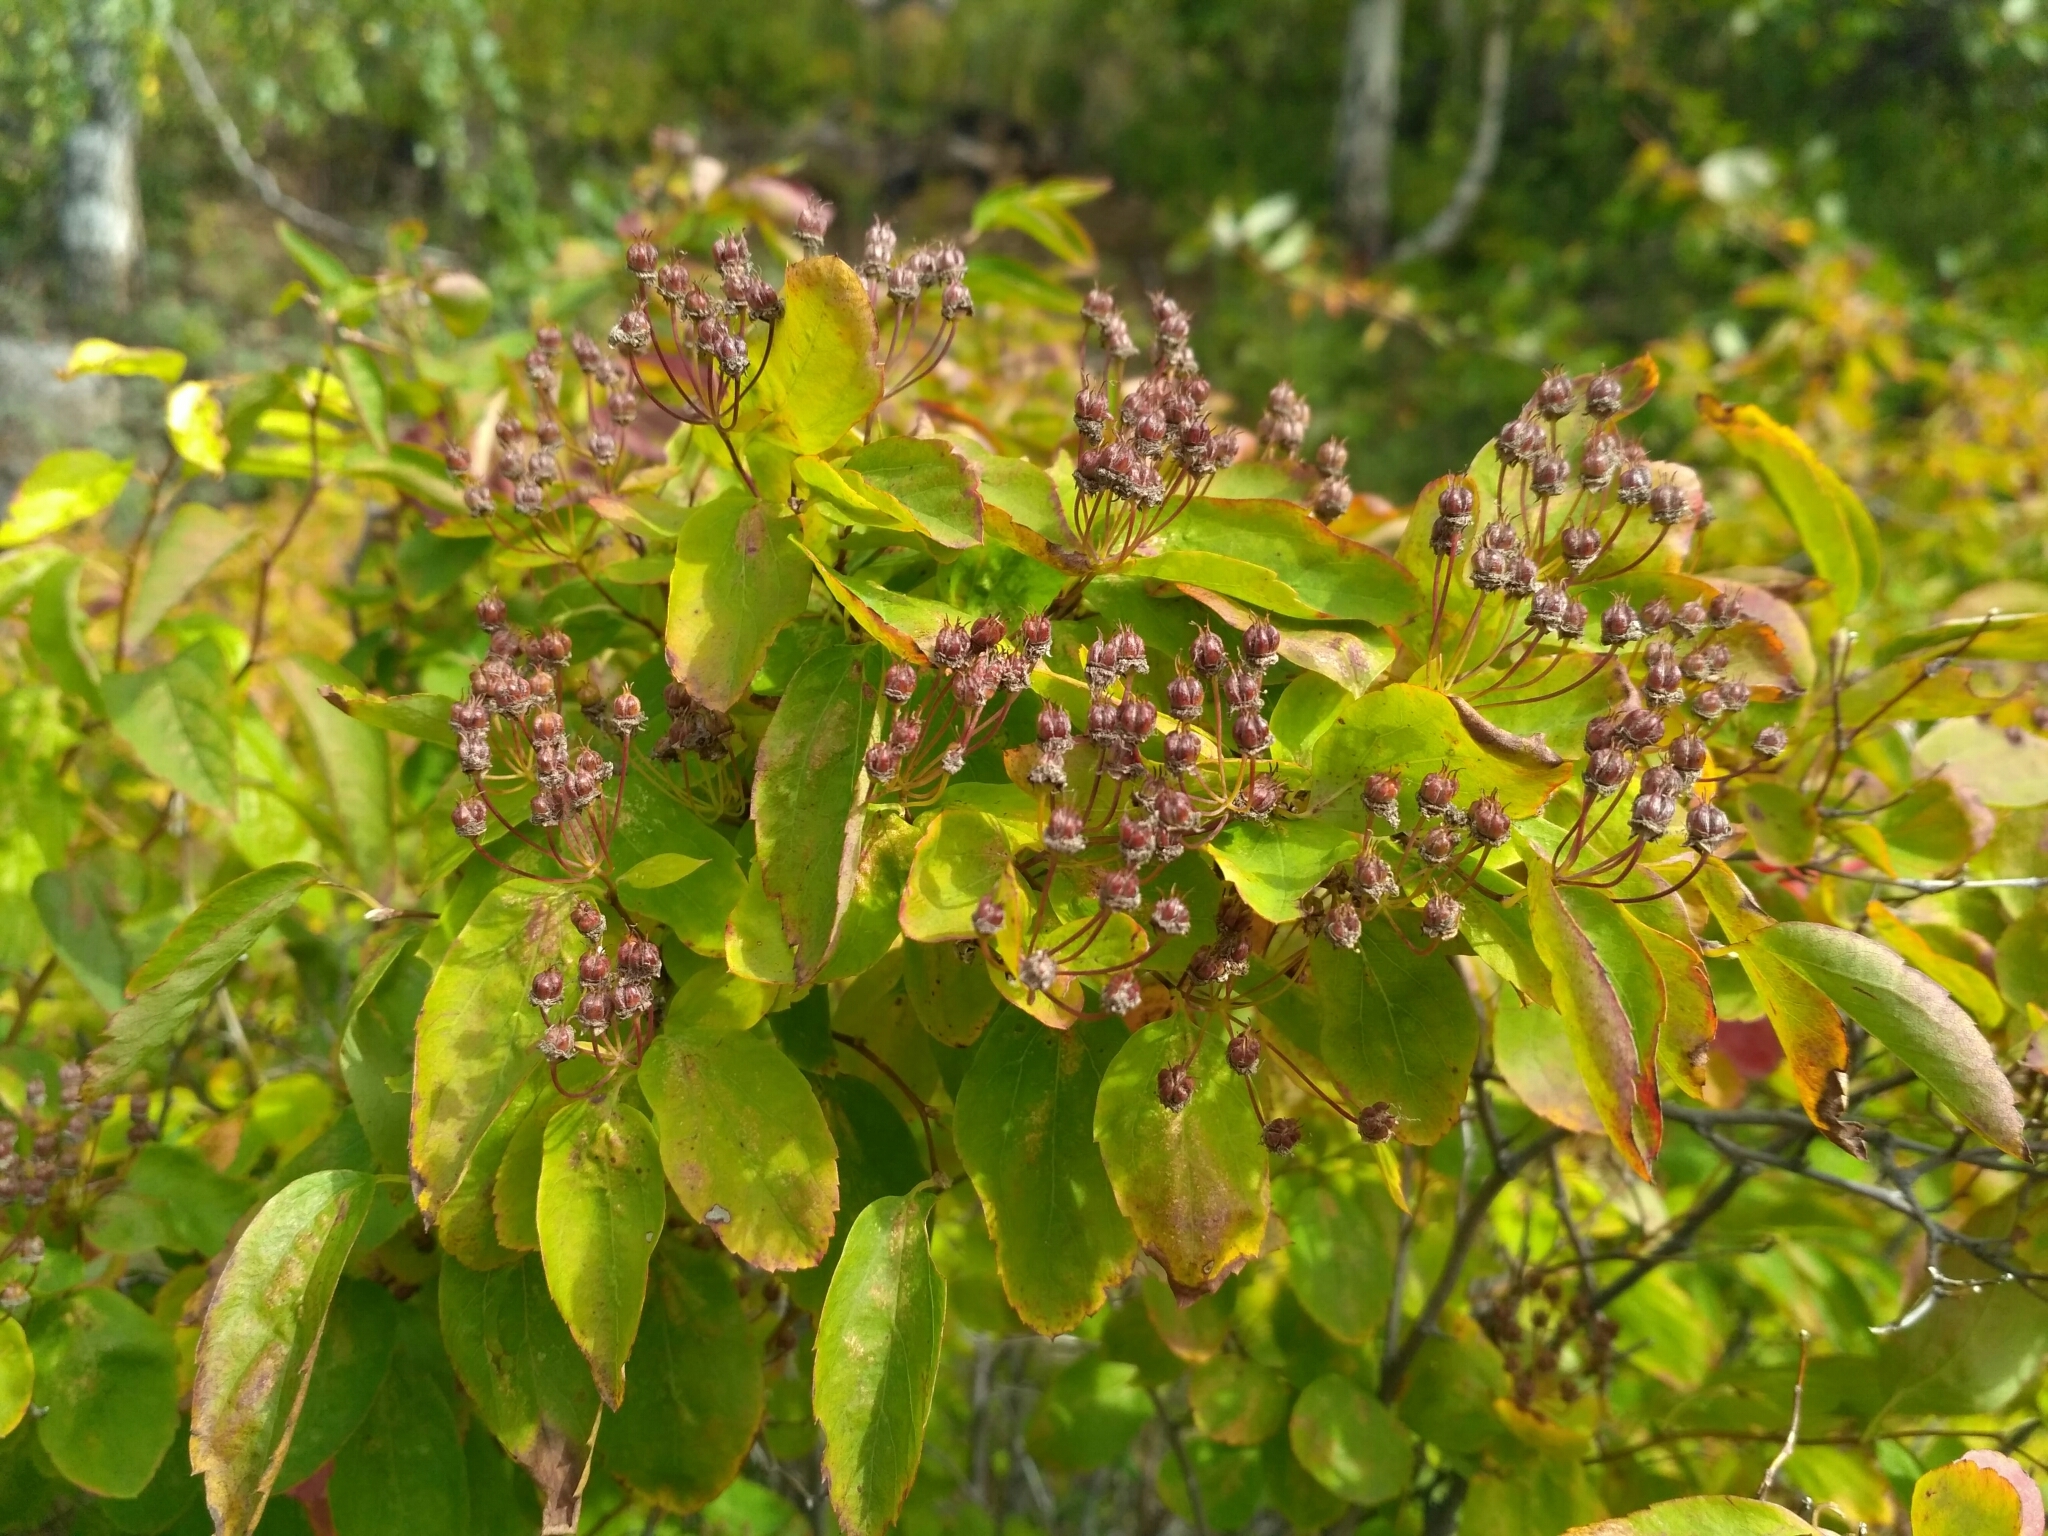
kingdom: Plantae
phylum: Tracheophyta
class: Magnoliopsida
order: Rosales
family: Rosaceae
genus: Spiraea
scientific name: Spiraea media
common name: Russian spiraea
